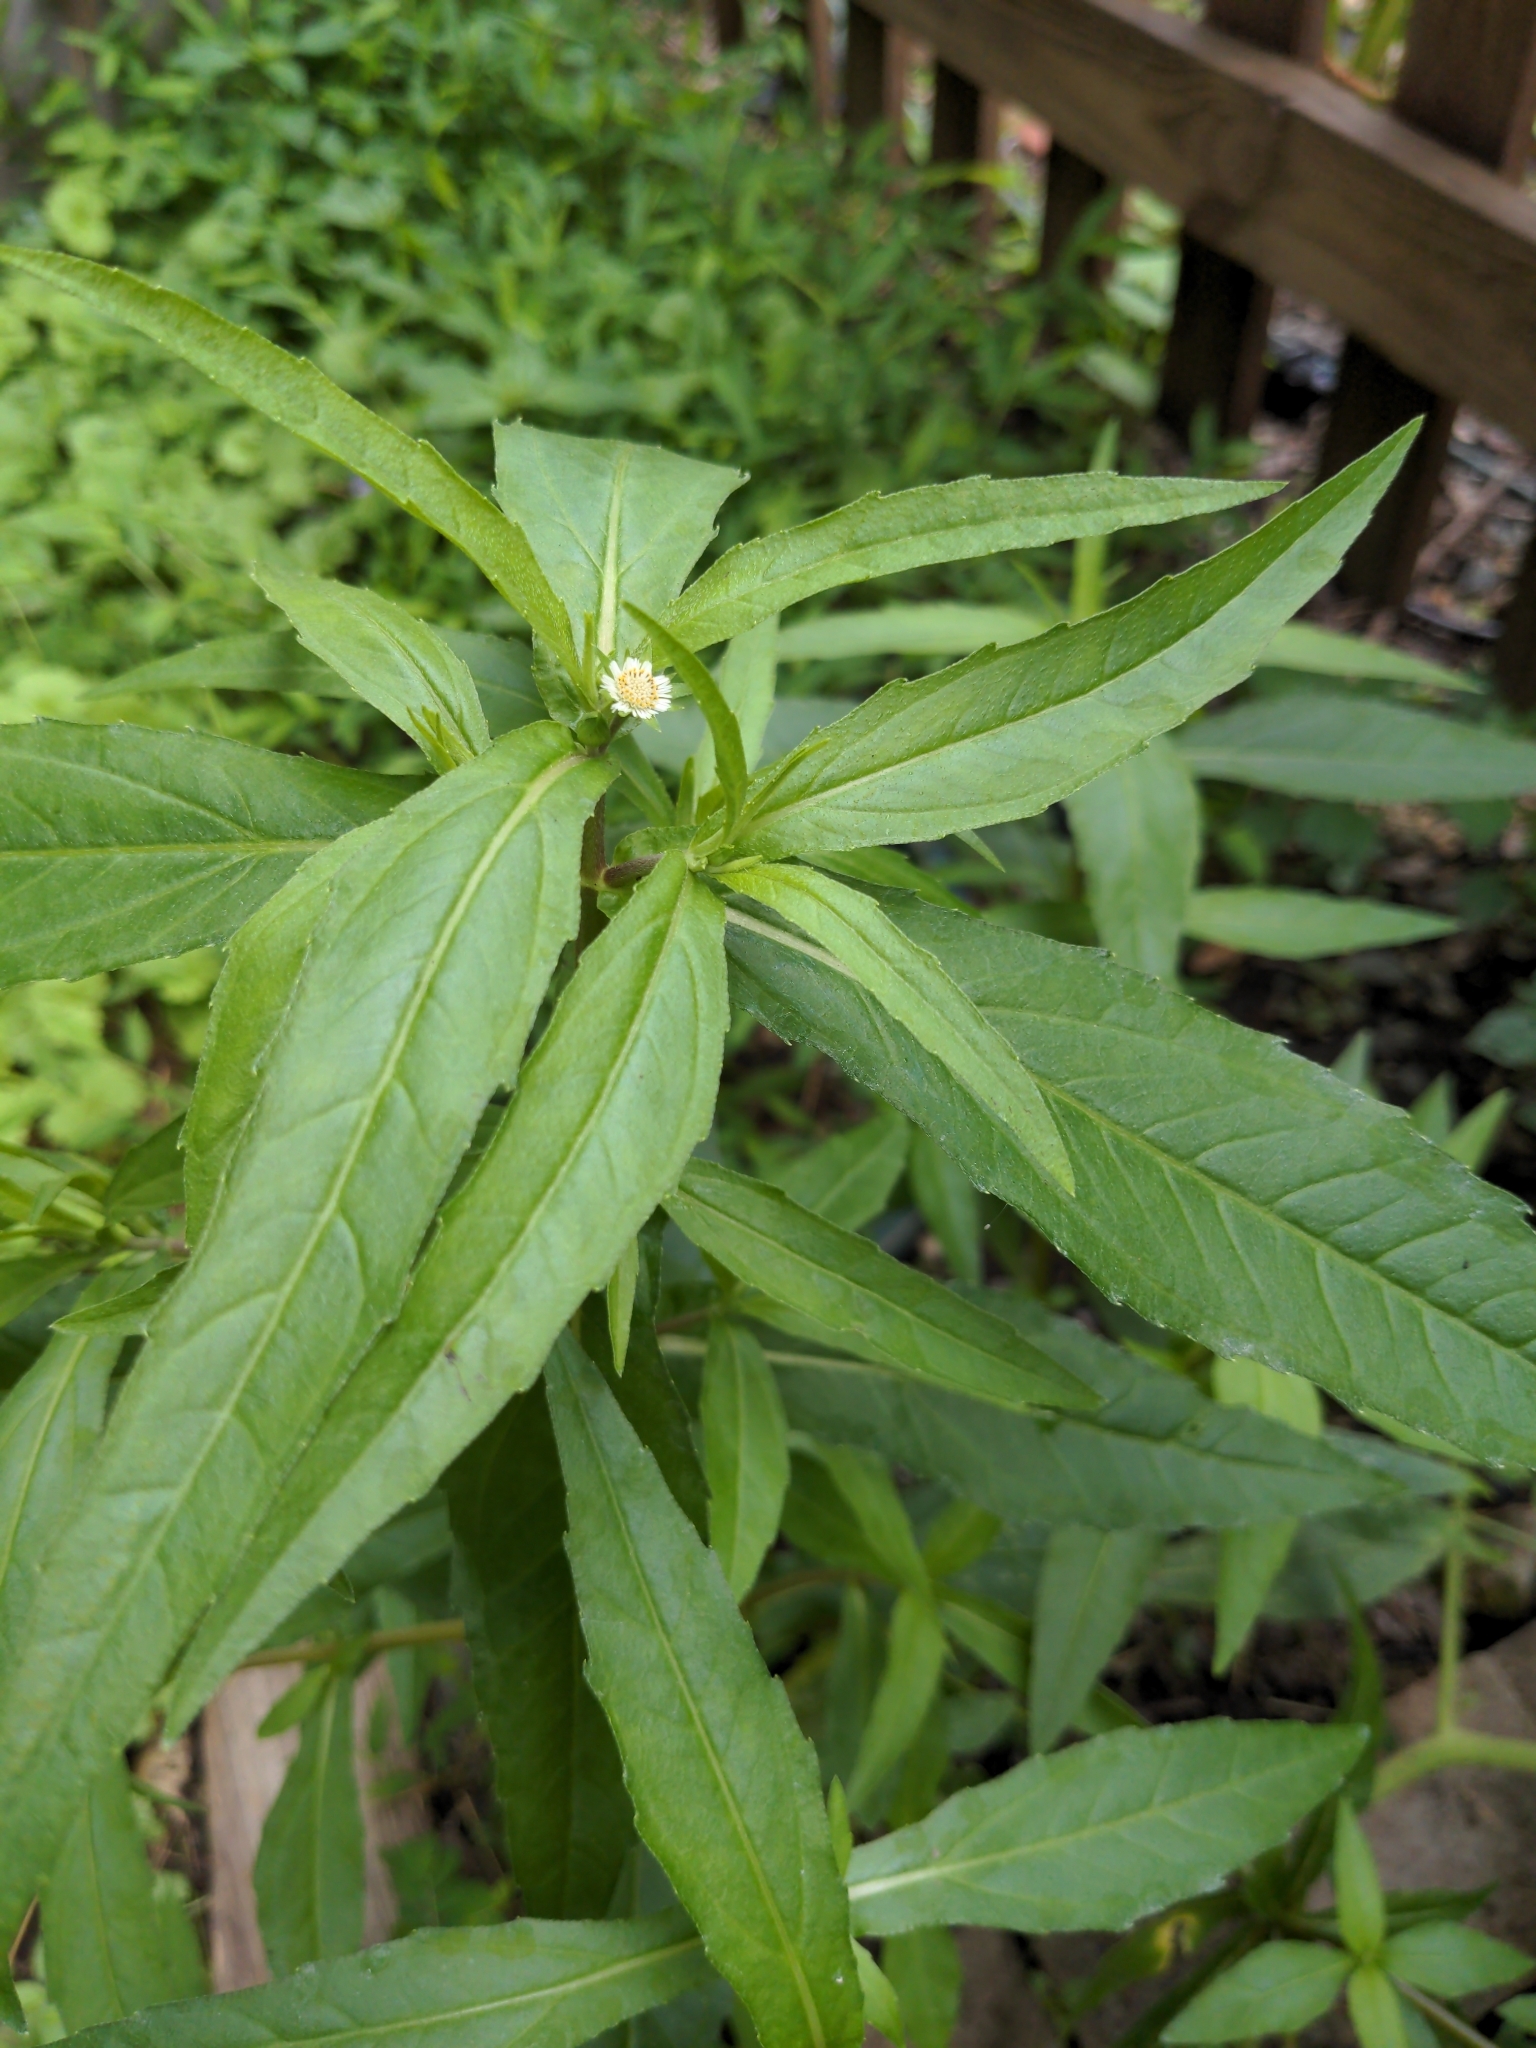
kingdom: Plantae
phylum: Tracheophyta
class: Magnoliopsida
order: Asterales
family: Asteraceae
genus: Eclipta
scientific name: Eclipta prostrata
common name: False daisy
